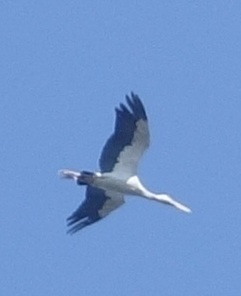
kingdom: Animalia
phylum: Chordata
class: Aves
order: Ciconiiformes
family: Ciconiidae
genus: Anastomus
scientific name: Anastomus oscitans
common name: Asian openbill
